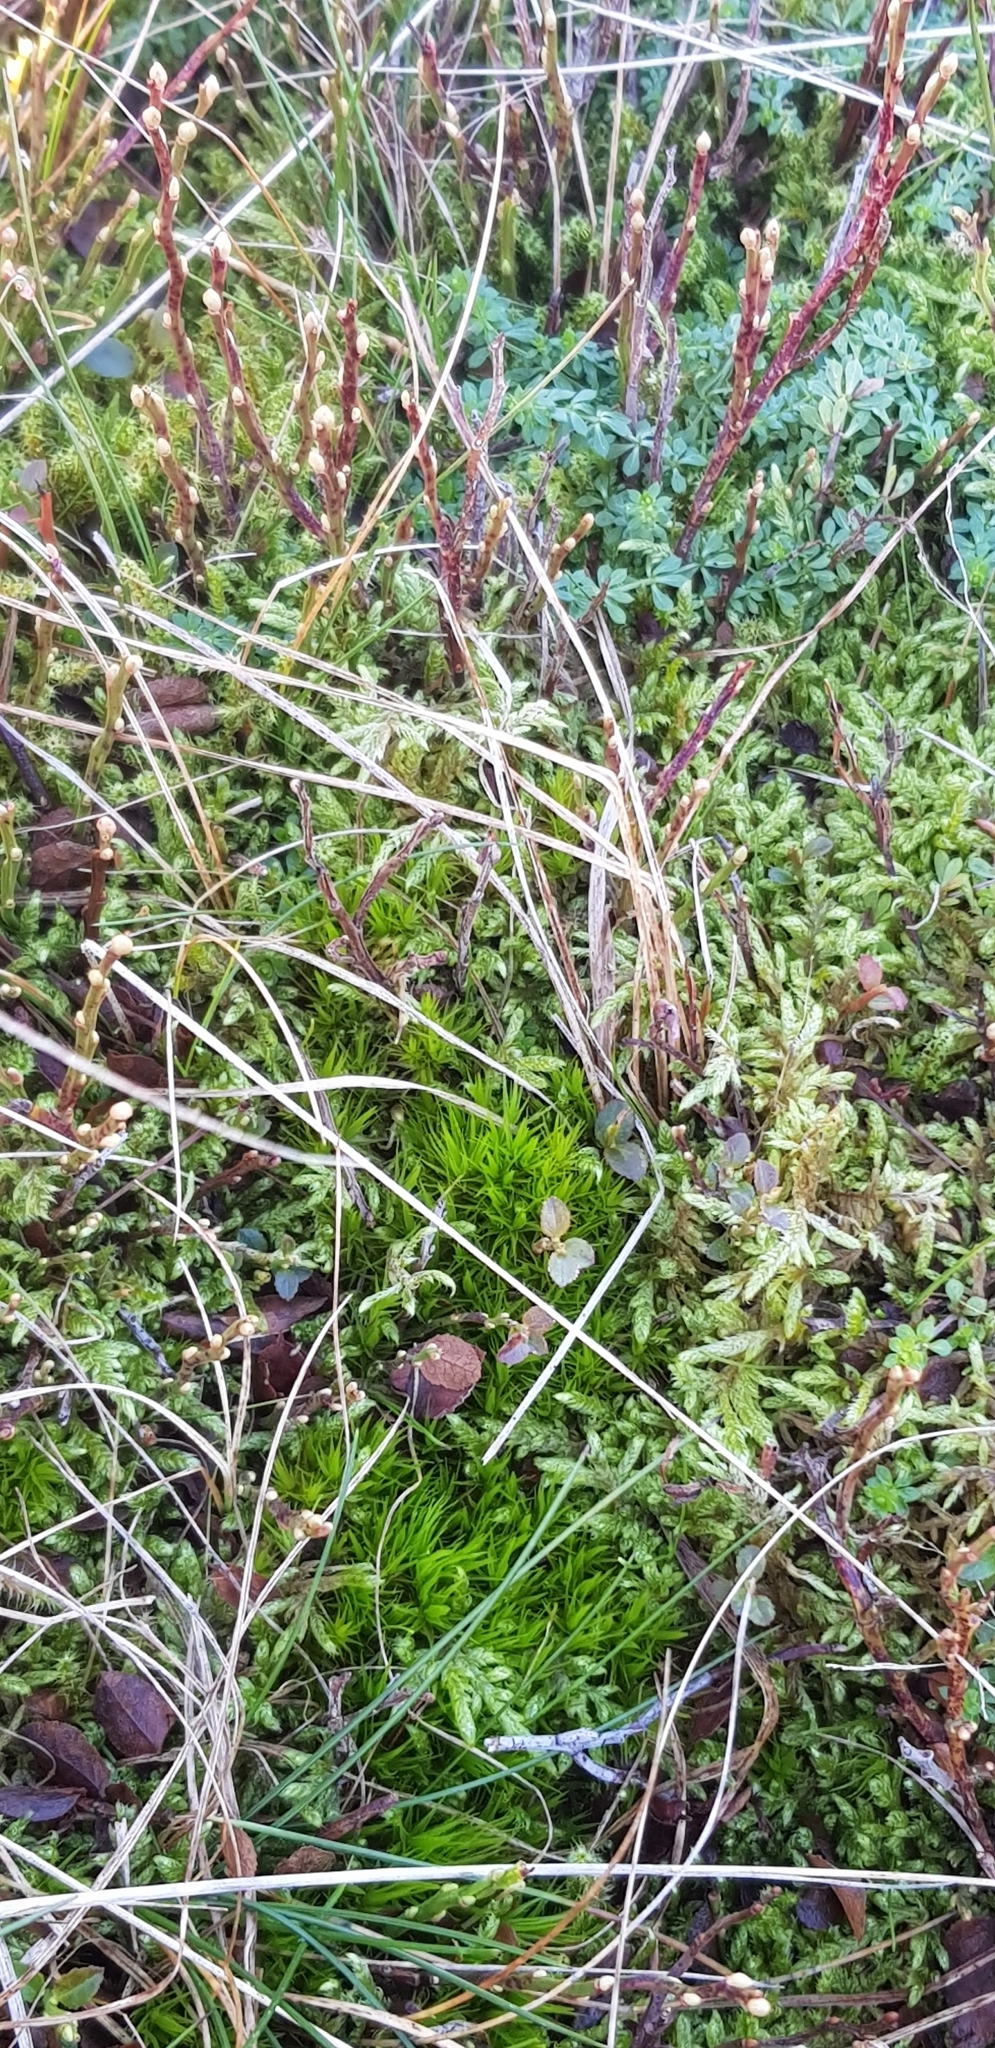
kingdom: Plantae
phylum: Bryophyta
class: Bryopsida
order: Dicranales
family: Dicranaceae
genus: Dicranum
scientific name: Dicranum scoparium
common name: Broom fork-moss
